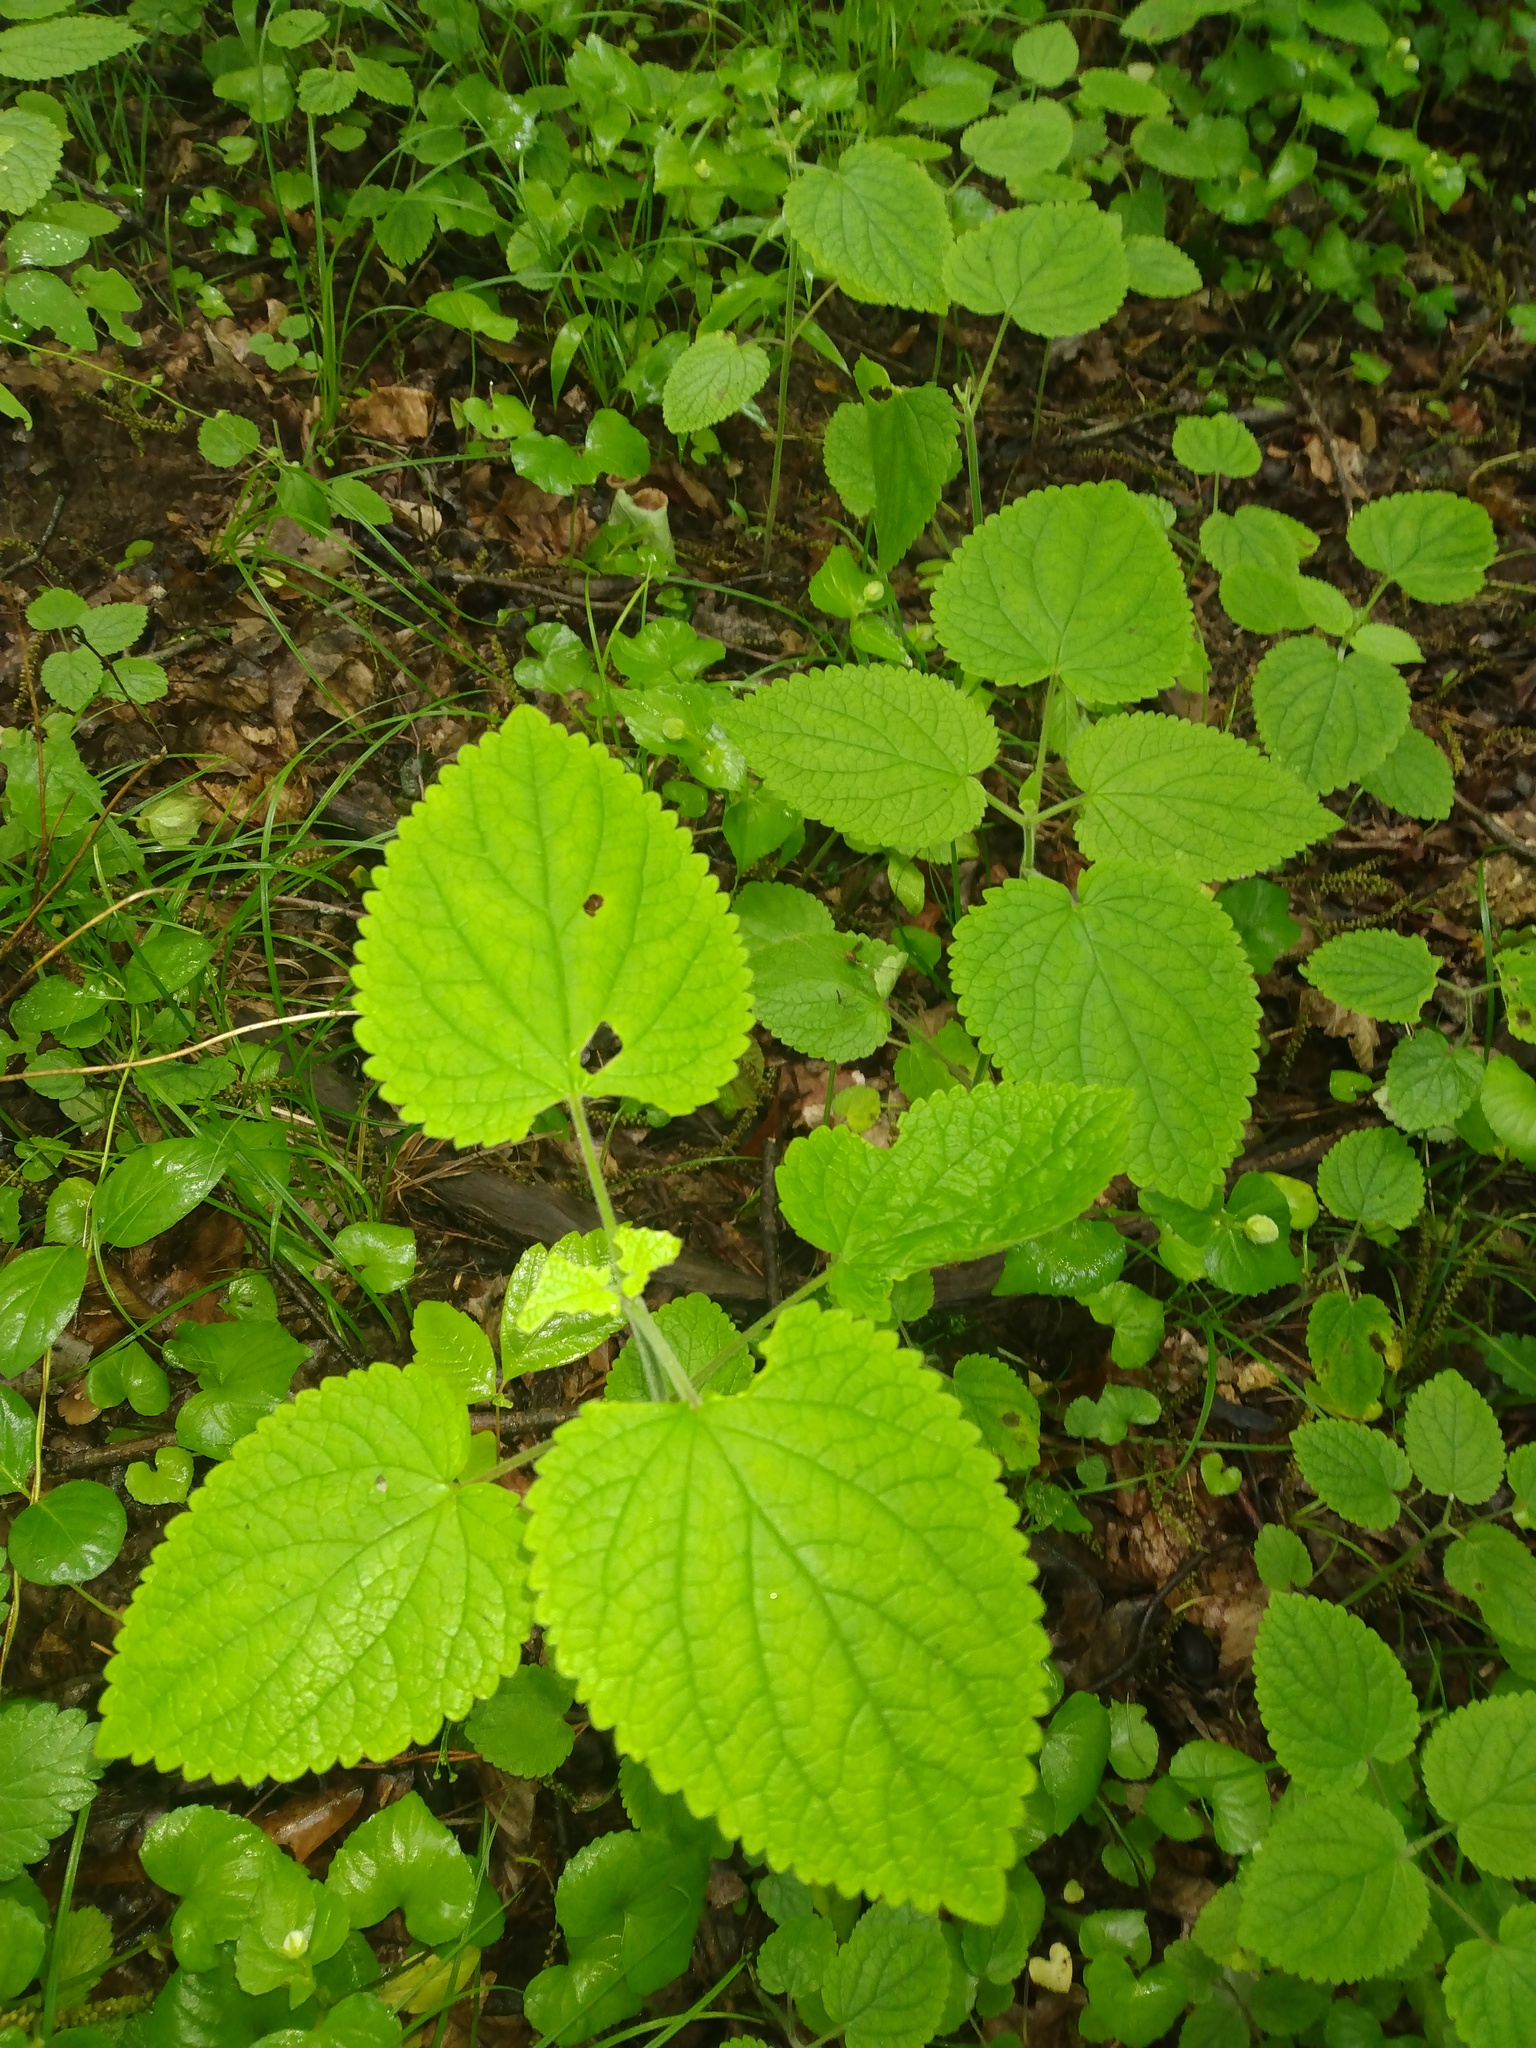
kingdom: Plantae
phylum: Tracheophyta
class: Magnoliopsida
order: Lamiales
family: Lamiaceae
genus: Scutellaria
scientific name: Scutellaria ovata
